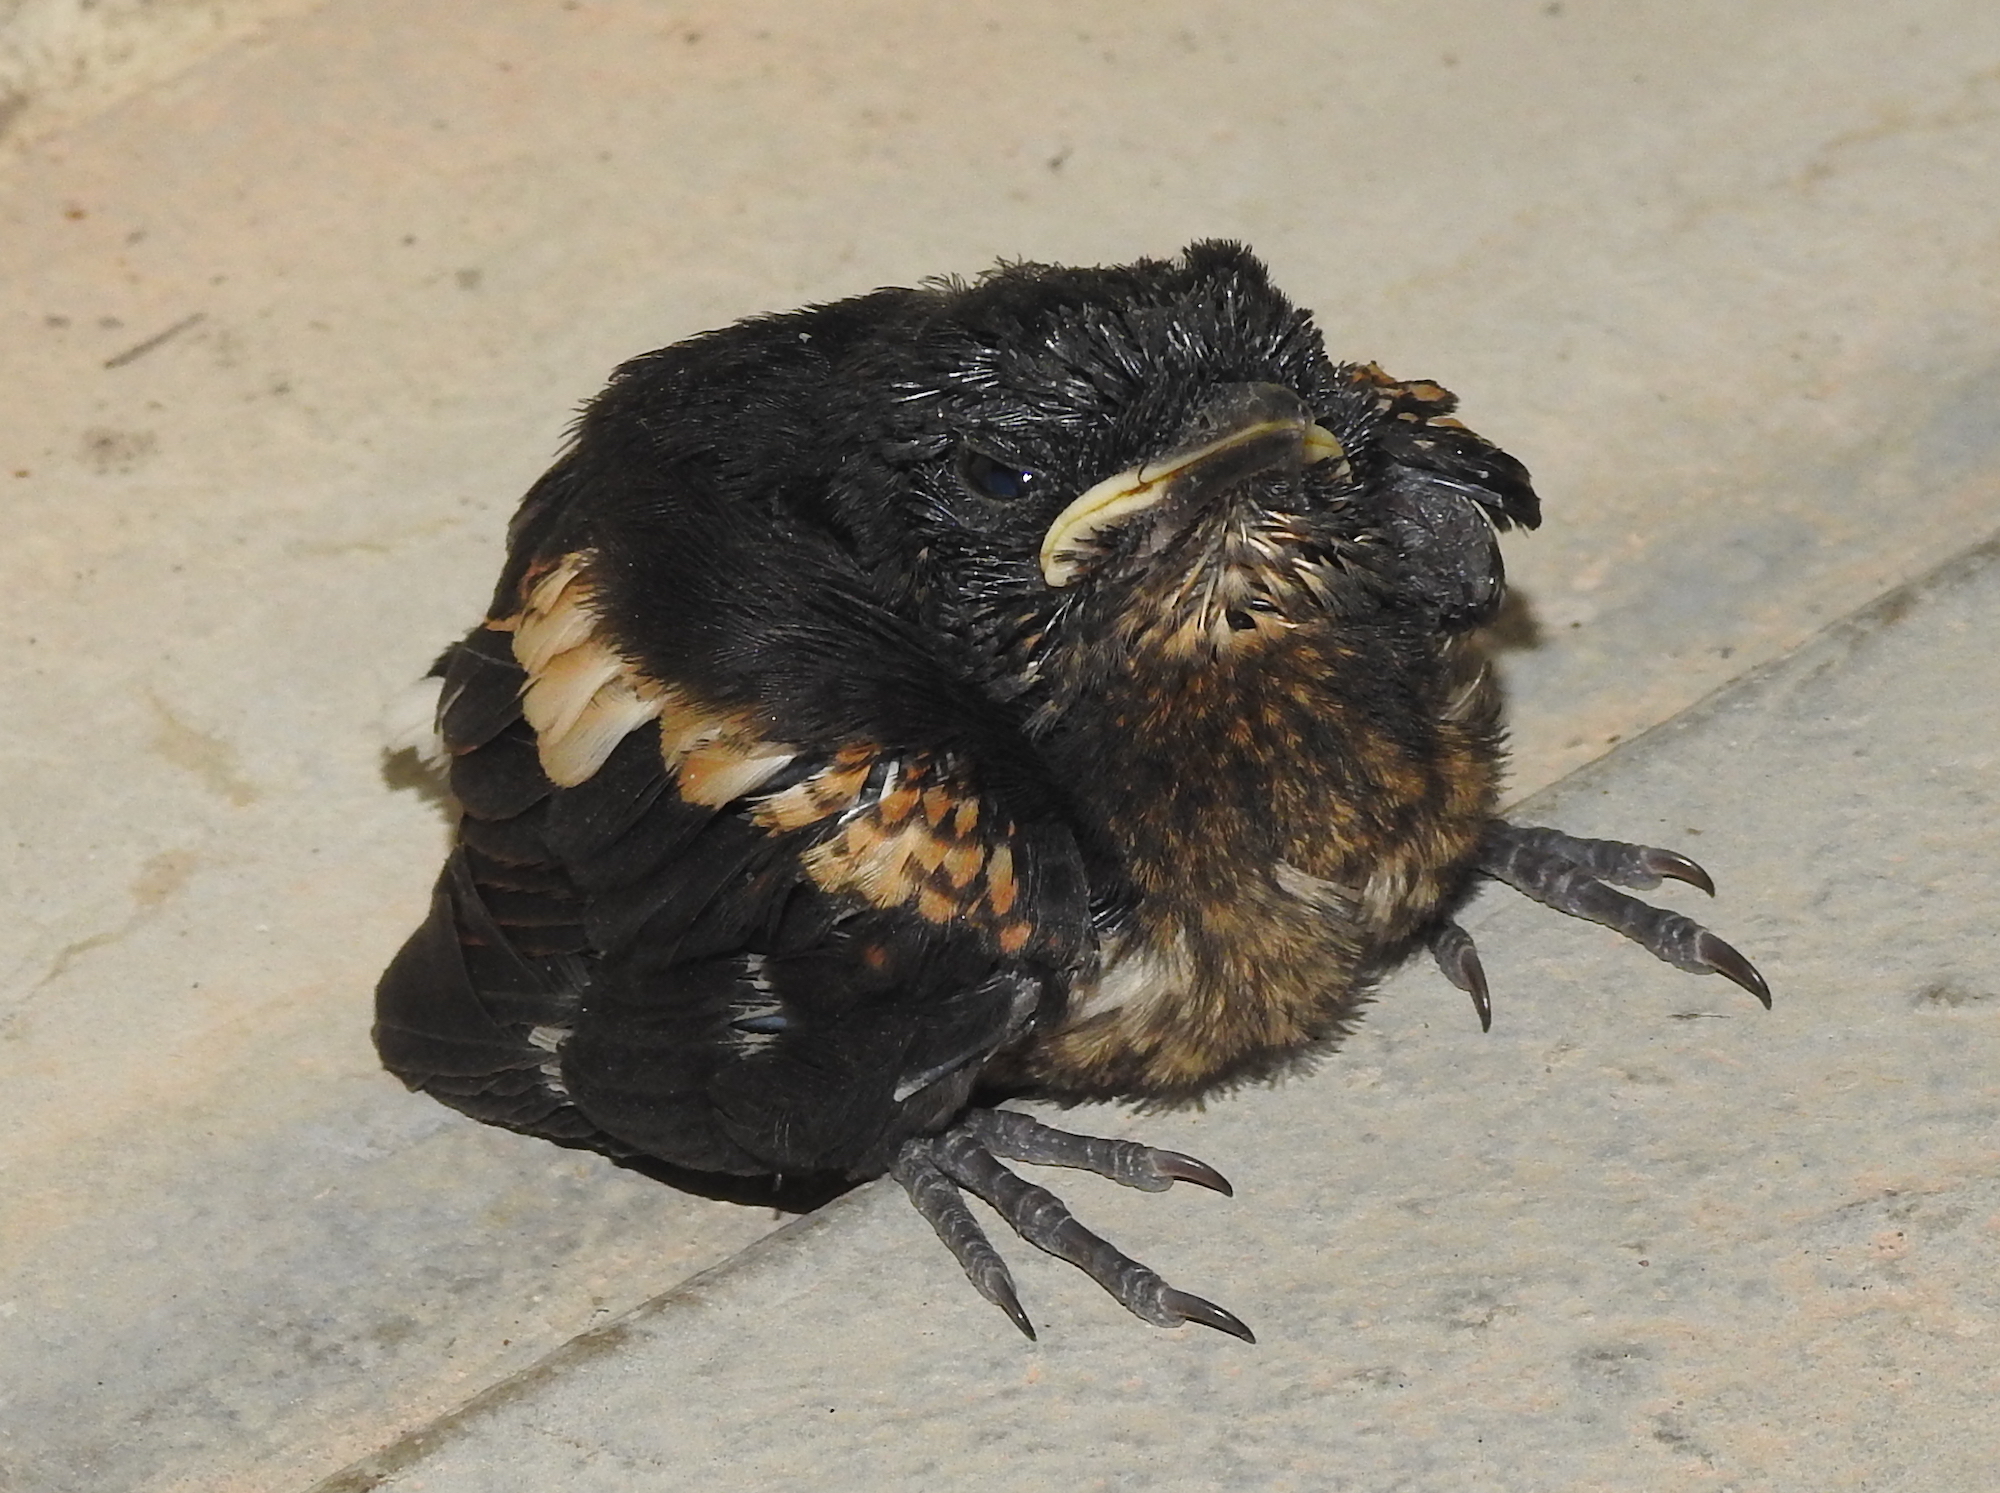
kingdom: Animalia
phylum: Chordata
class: Aves
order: Passeriformes
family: Muscicapidae
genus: Copsychus
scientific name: Copsychus saularis
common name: Oriental magpie-robin
